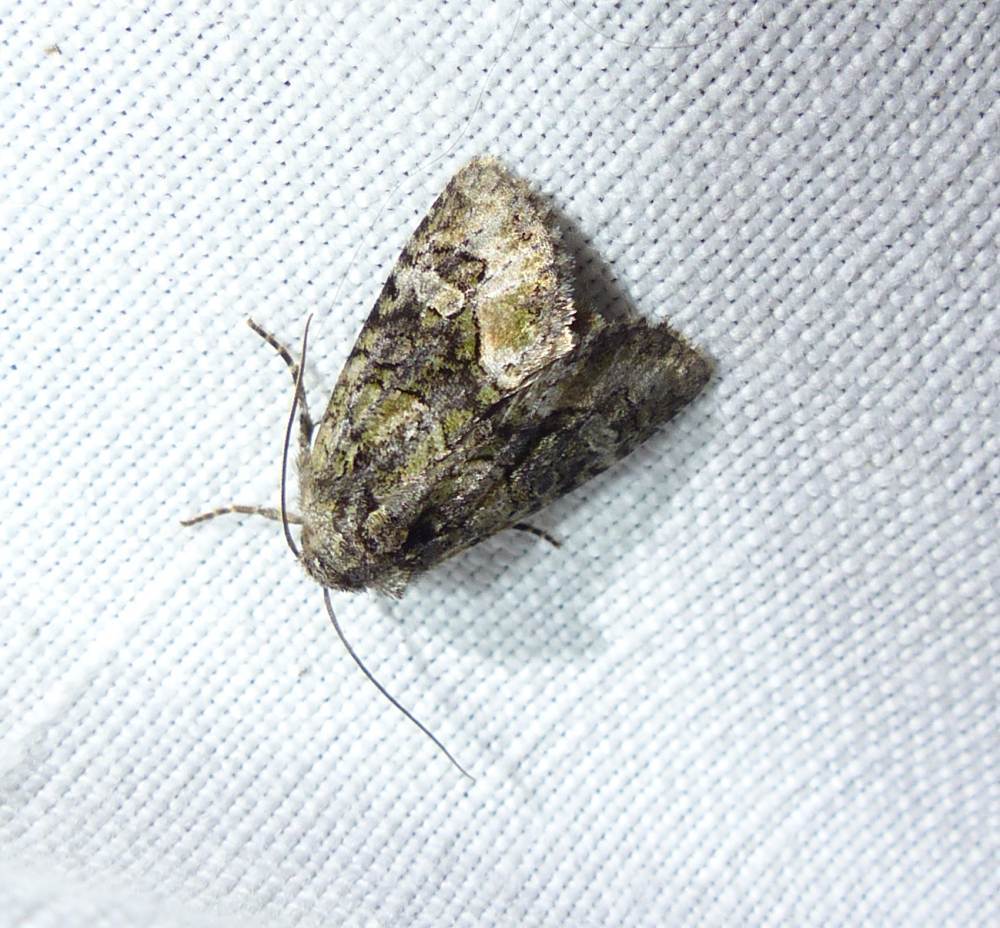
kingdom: Animalia
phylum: Arthropoda
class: Insecta
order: Lepidoptera
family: Noctuidae
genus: Protodeltote
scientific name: Protodeltote muscosula
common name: Large mossy glyph
